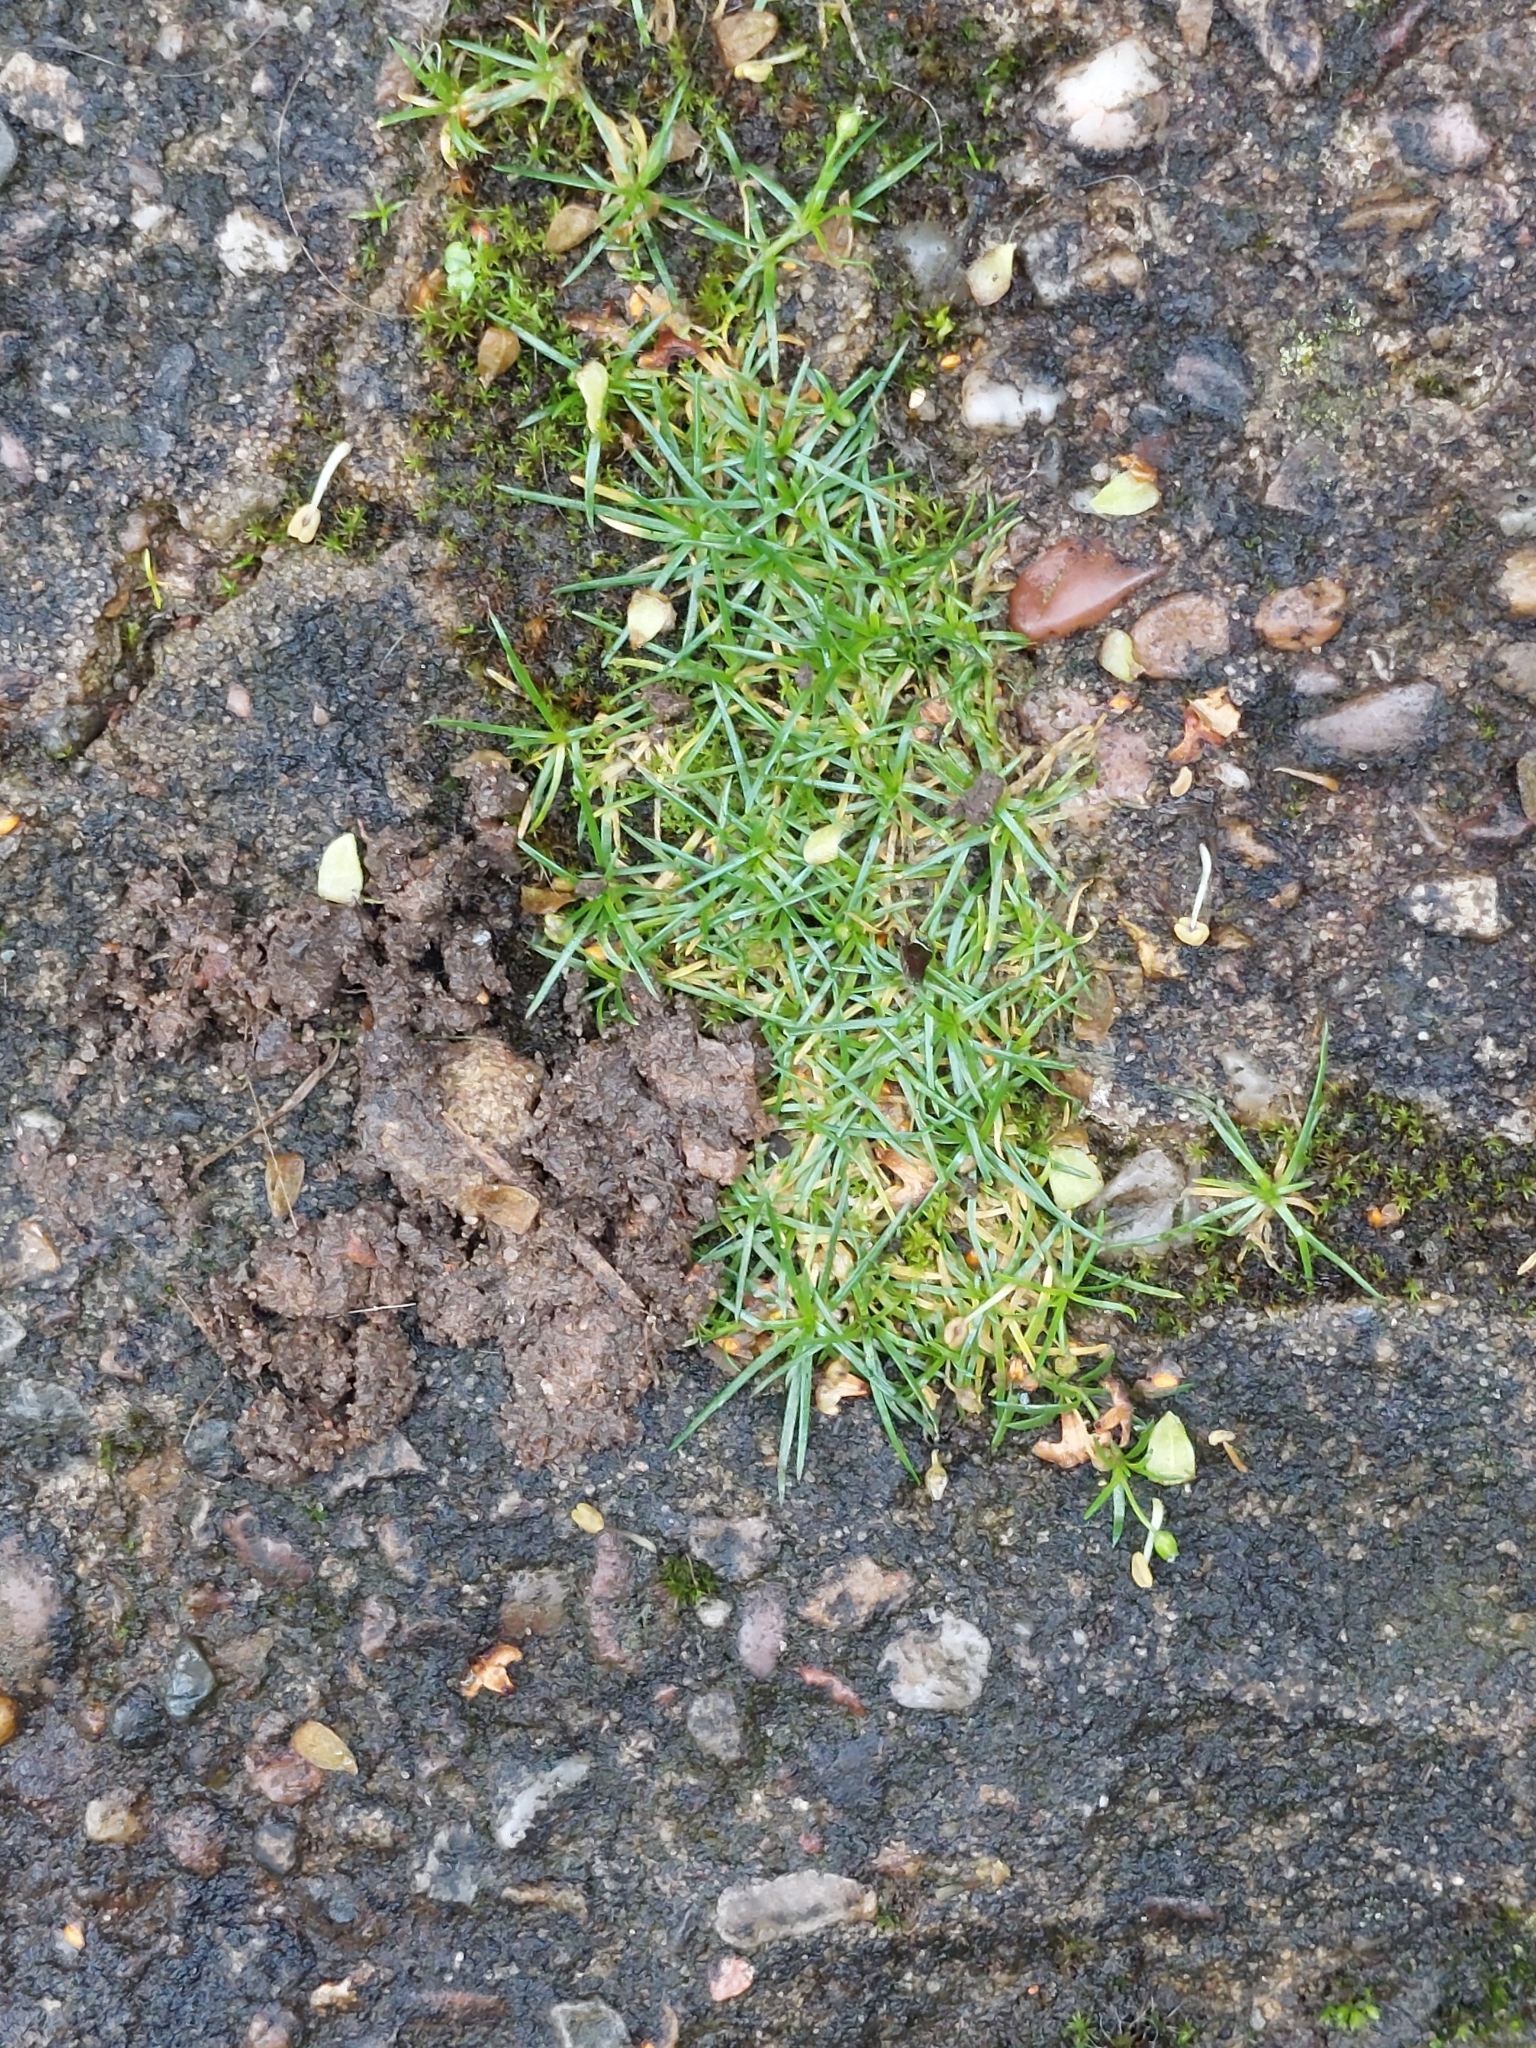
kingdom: Plantae
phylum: Tracheophyta
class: Magnoliopsida
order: Caryophyllales
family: Caryophyllaceae
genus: Sagina
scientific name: Sagina procumbens
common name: Procumbent pearlwort
